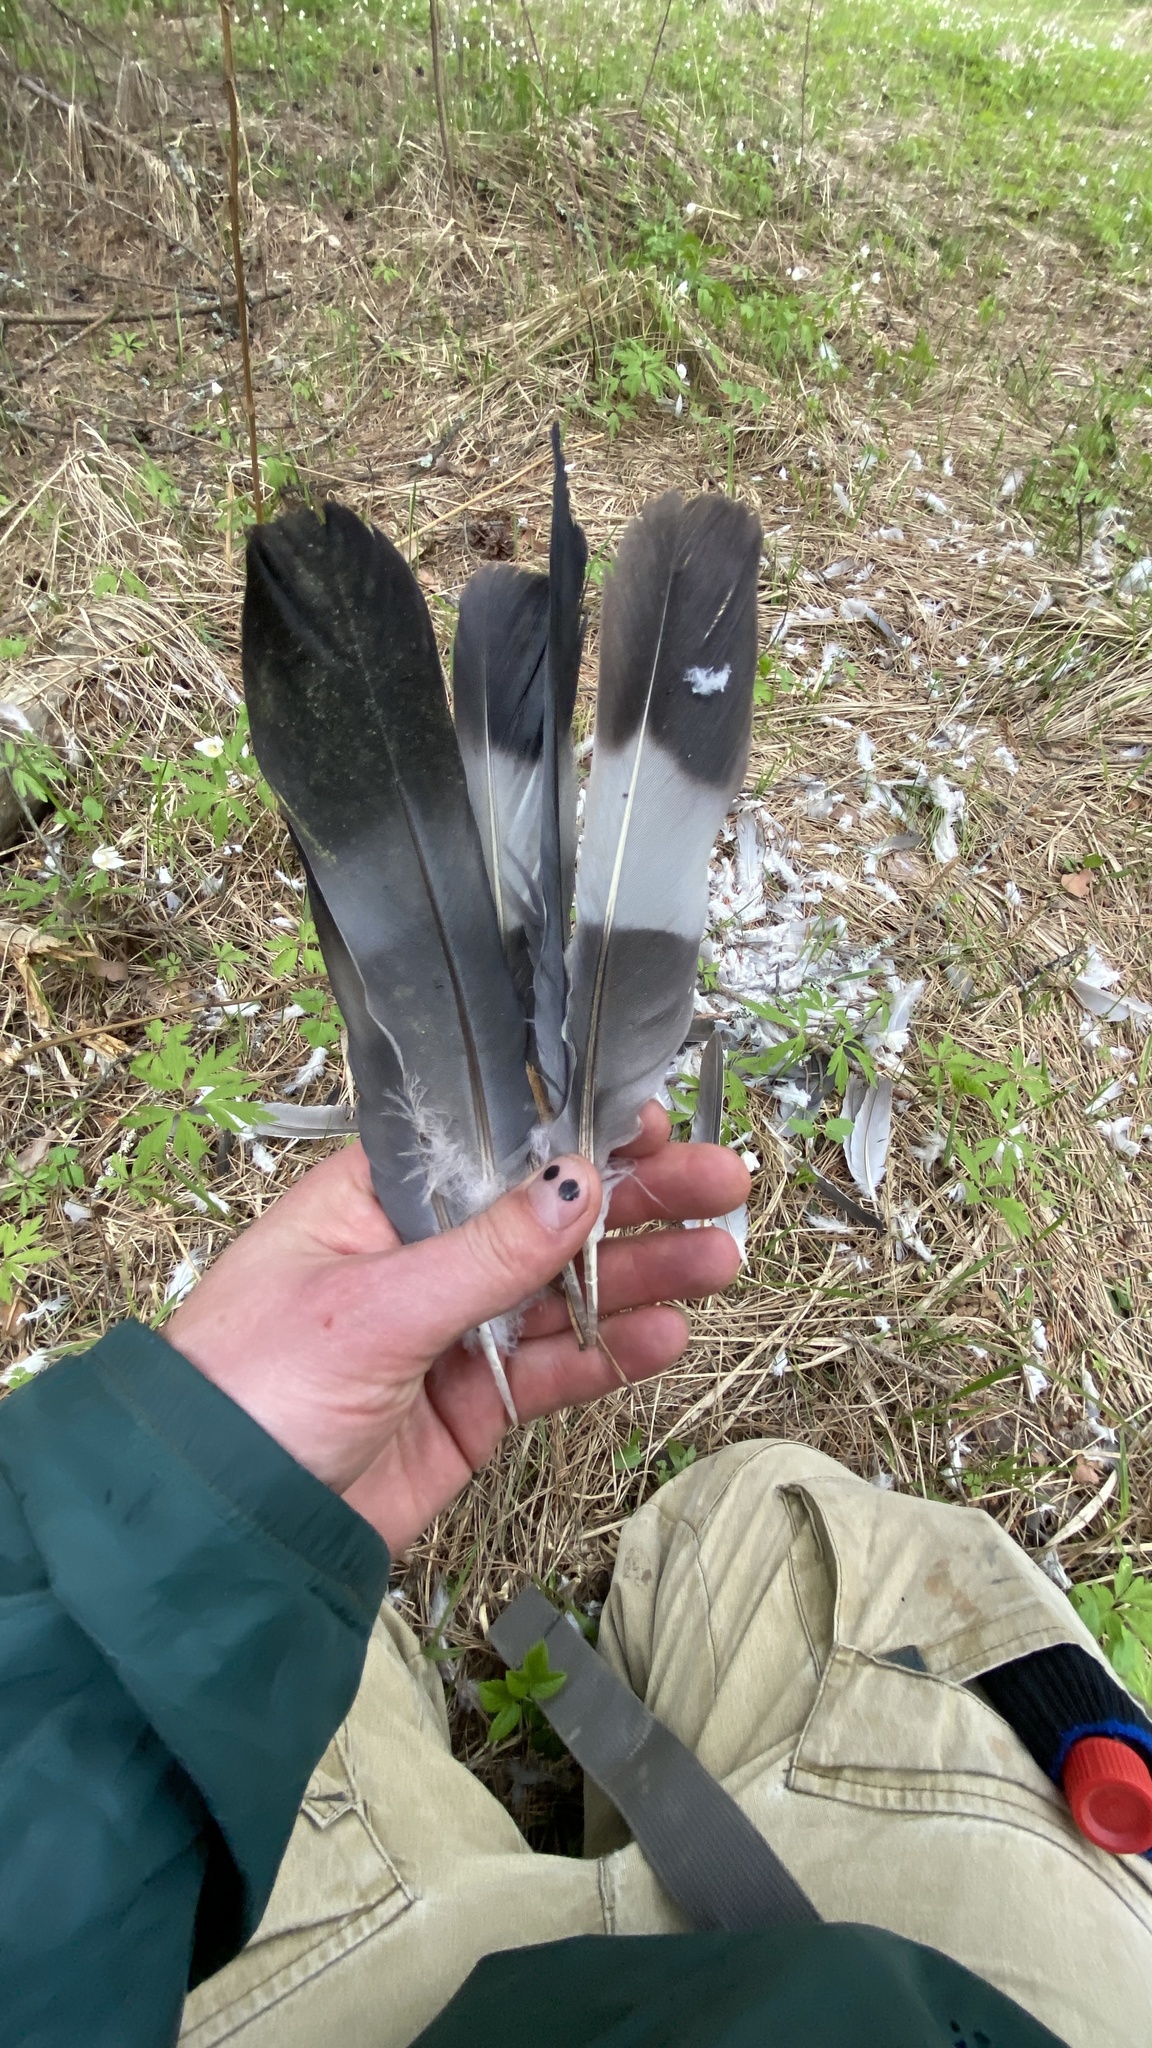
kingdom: Animalia
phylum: Chordata
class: Aves
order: Columbiformes
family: Columbidae
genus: Columba
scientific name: Columba palumbus
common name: Common wood pigeon
